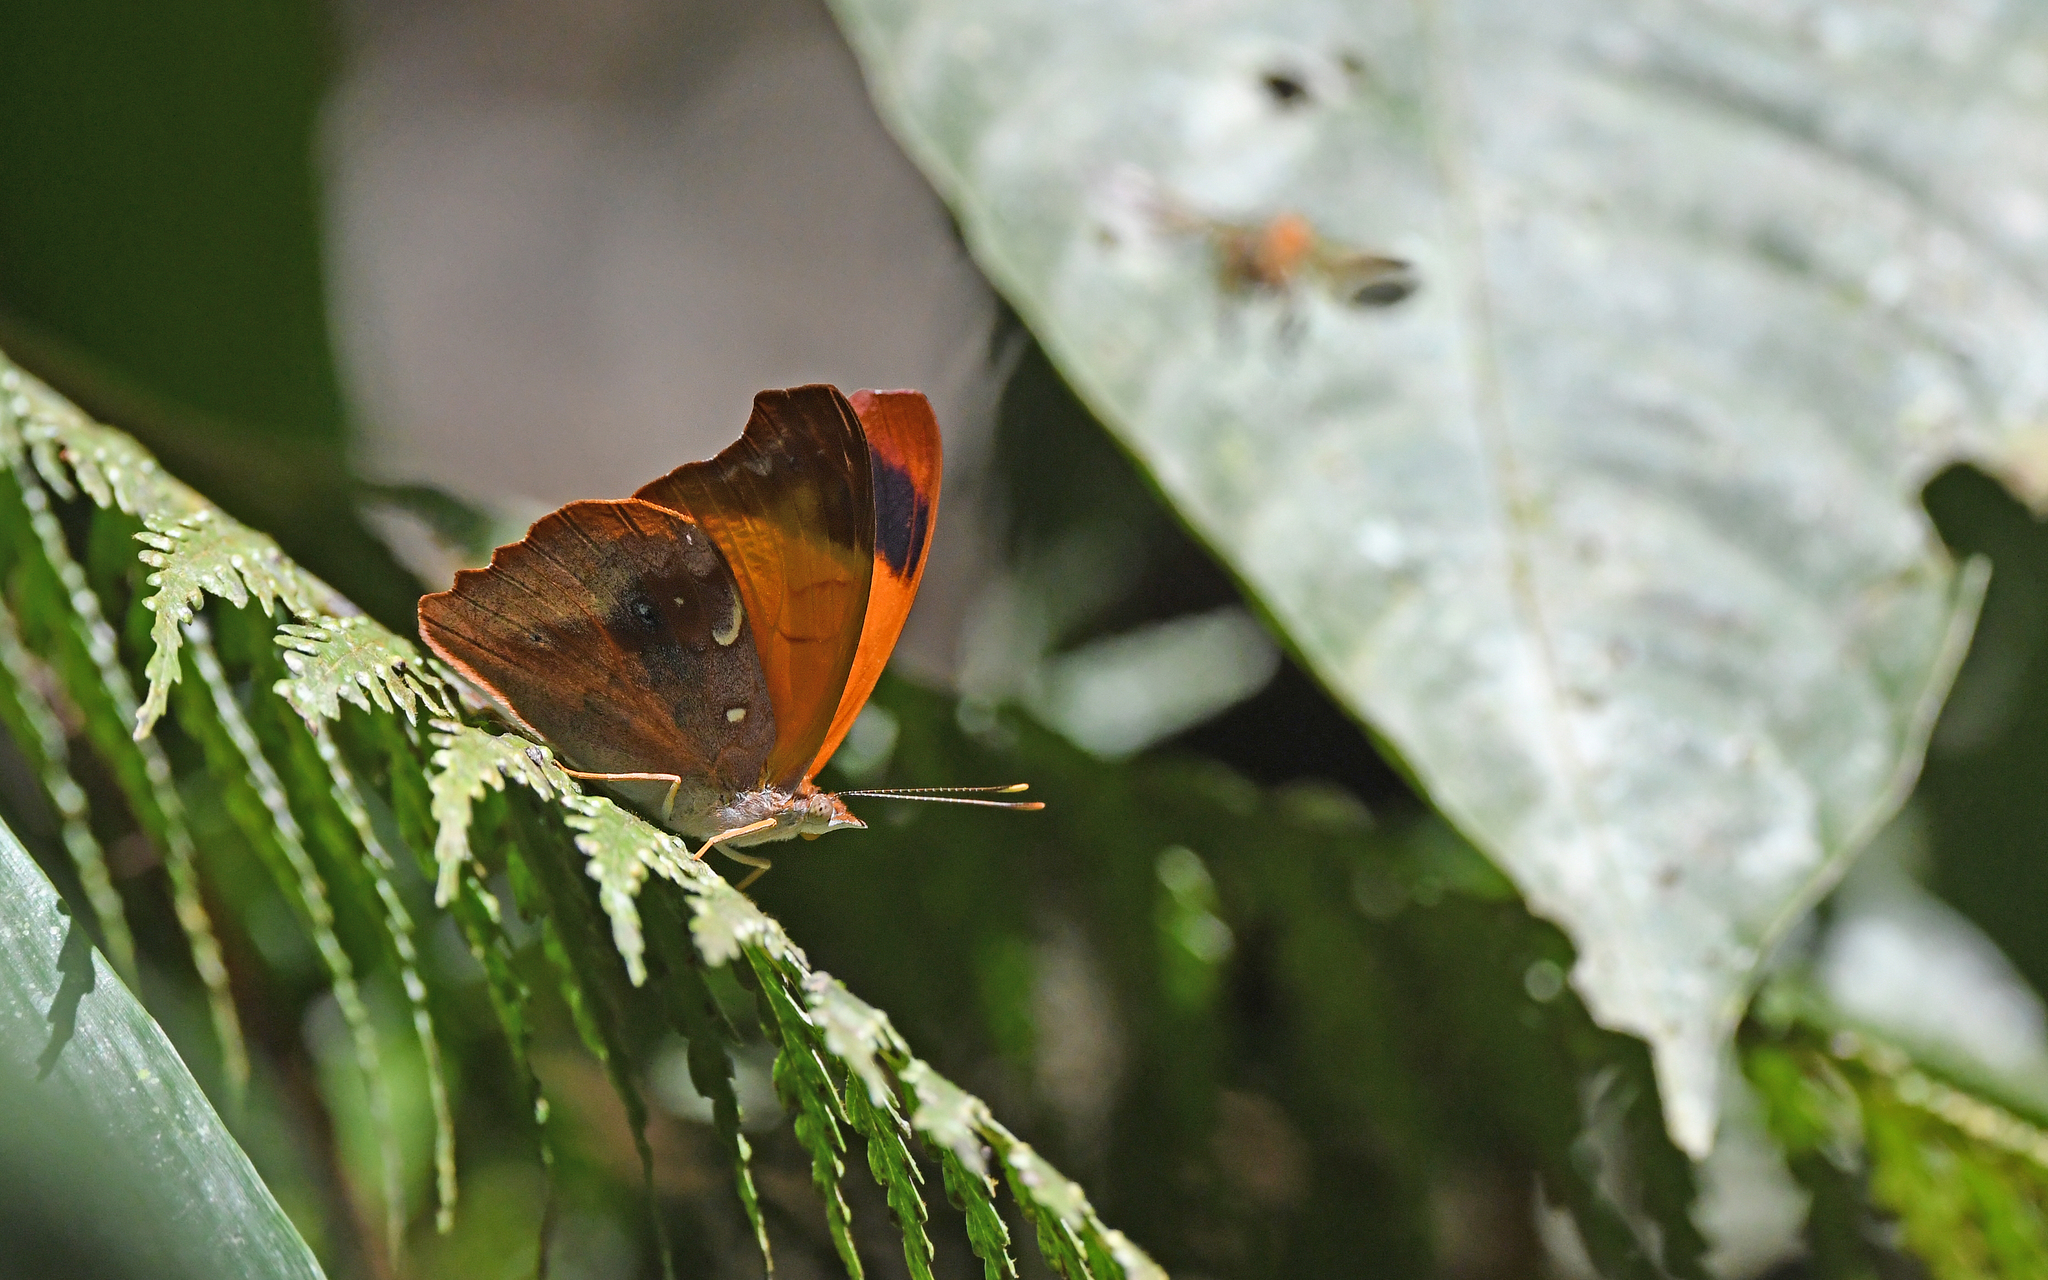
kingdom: Animalia
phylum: Arthropoda
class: Insecta
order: Lepidoptera
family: Nymphalidae
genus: Temenis
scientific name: Temenis laothoe
